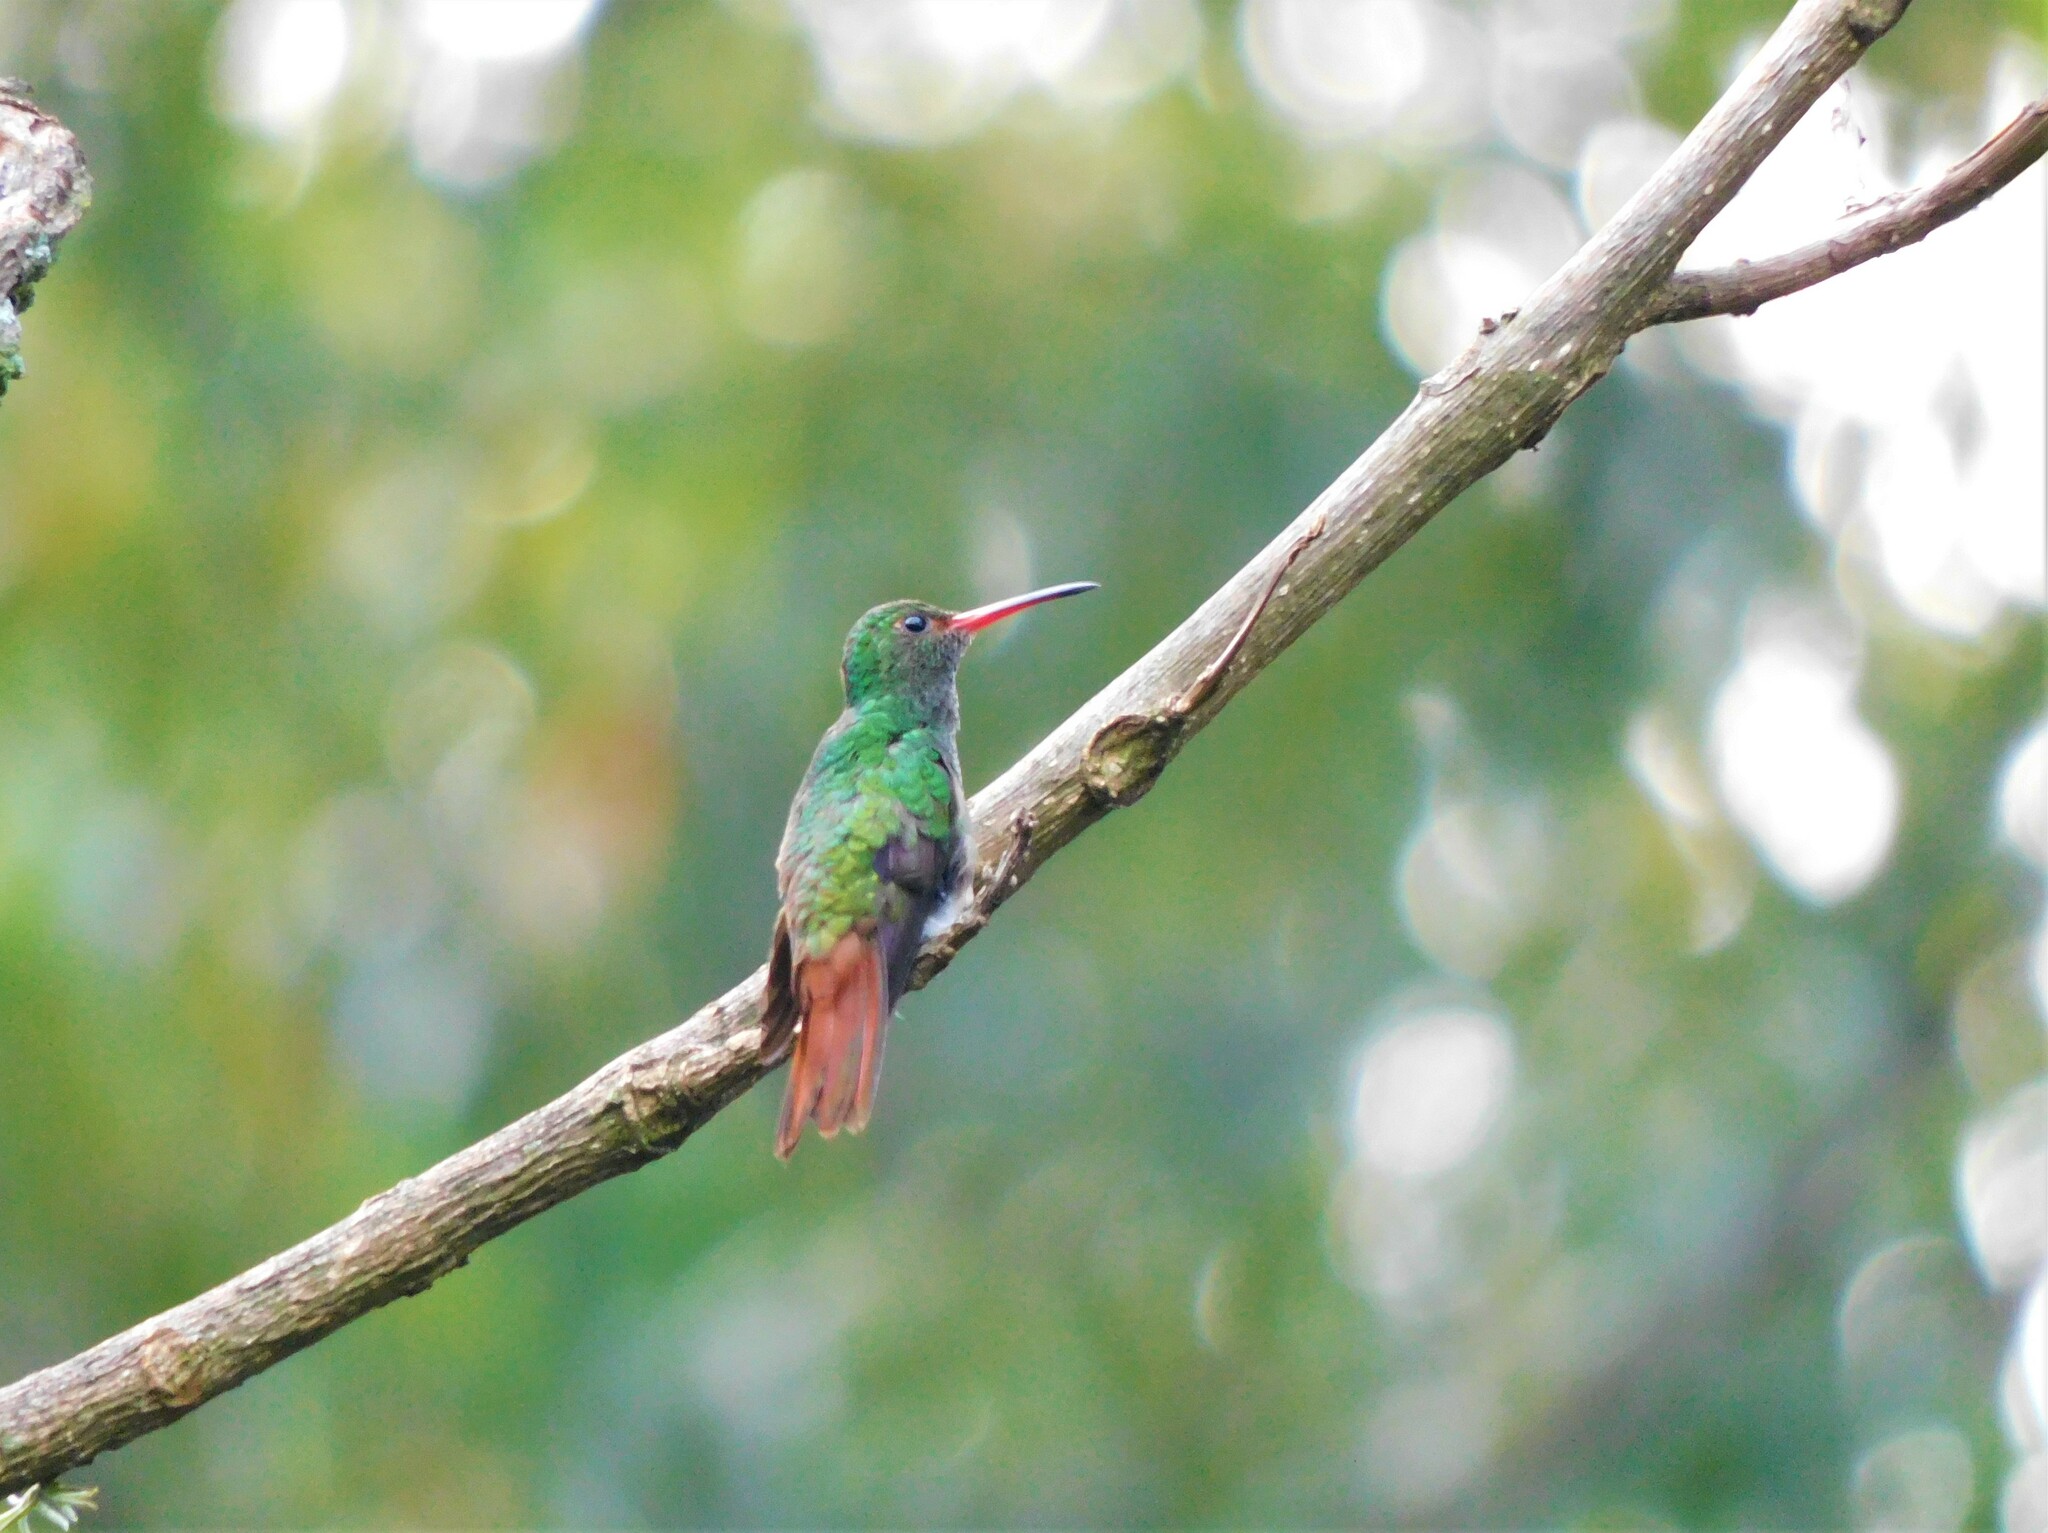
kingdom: Animalia
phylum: Chordata
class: Aves
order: Apodiformes
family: Trochilidae
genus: Amazilia
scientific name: Amazilia tzacatl
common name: Rufous-tailed hummingbird
